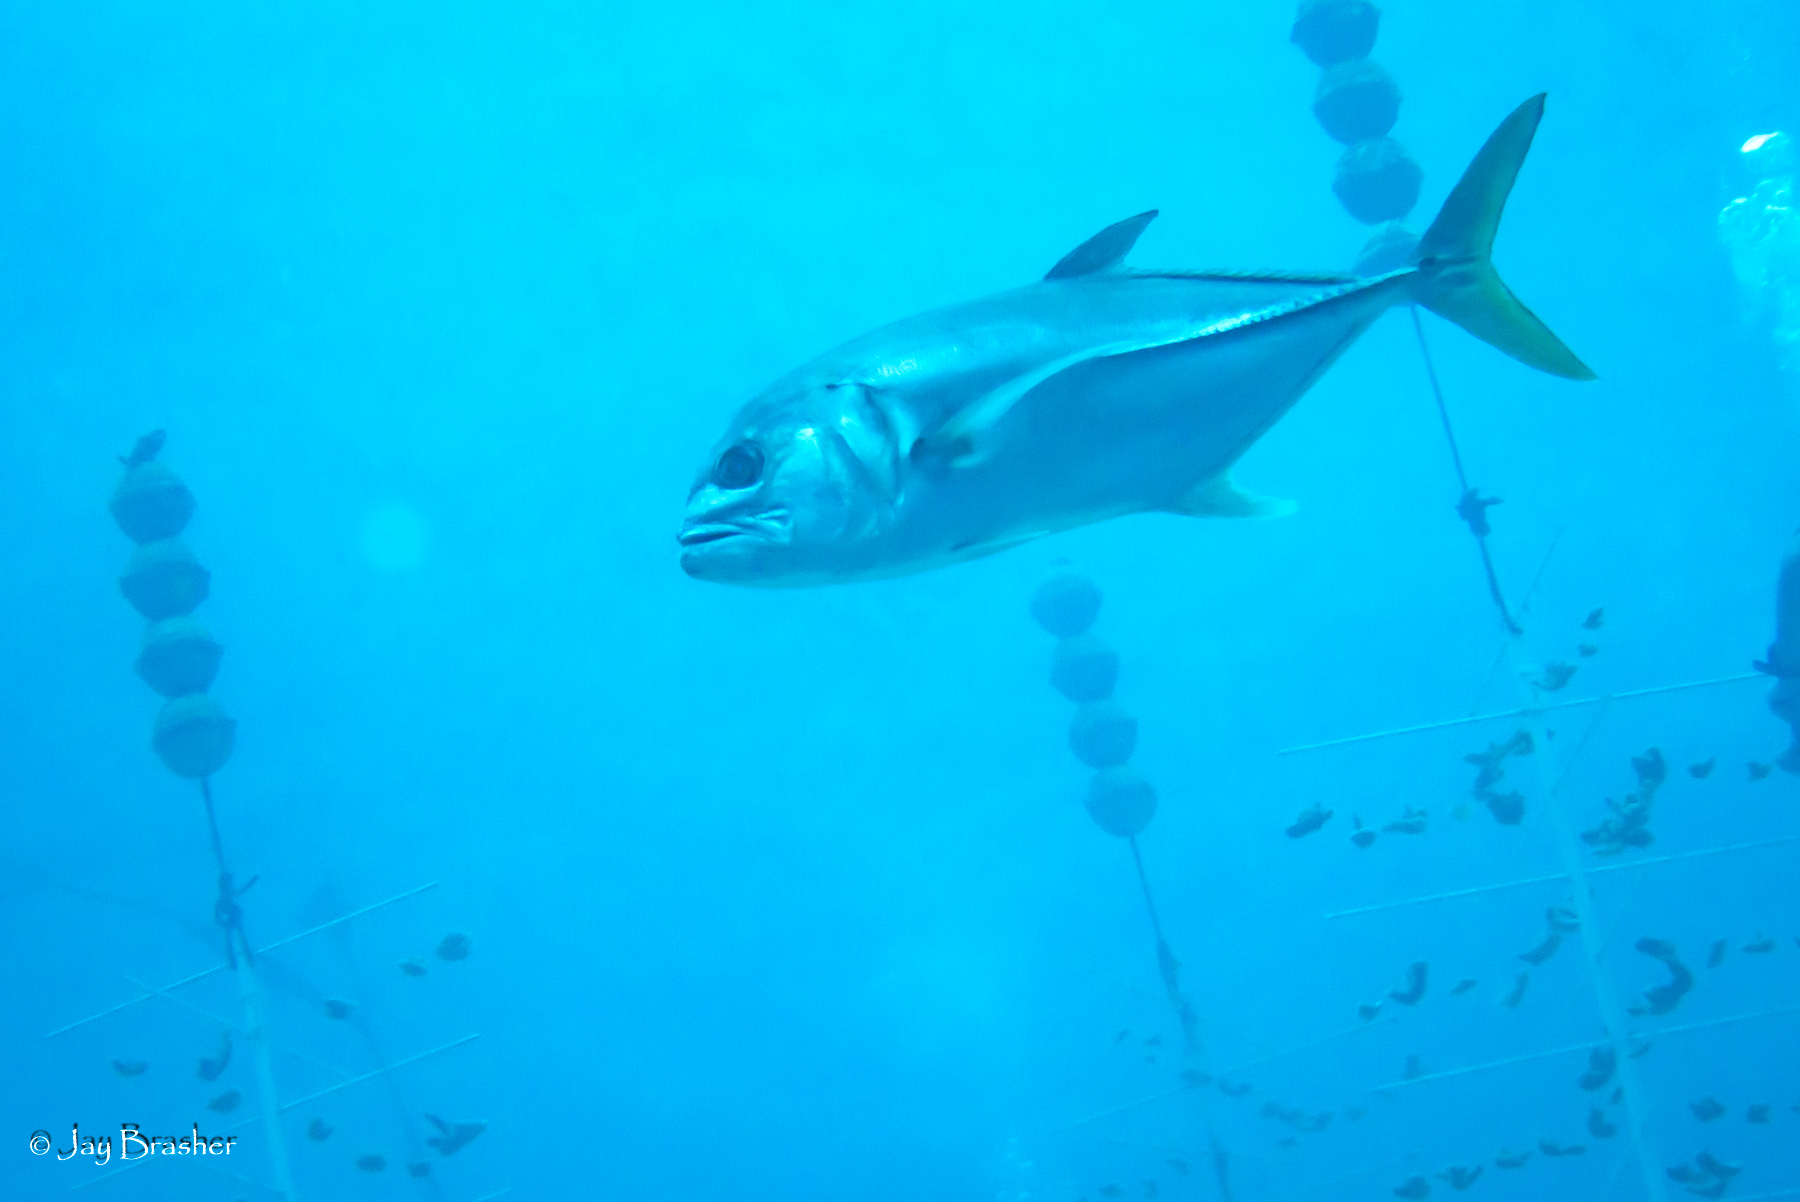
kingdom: Animalia
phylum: Chordata
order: Perciformes
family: Carangidae
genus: Caranx
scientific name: Caranx latus
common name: Horse eye jack
